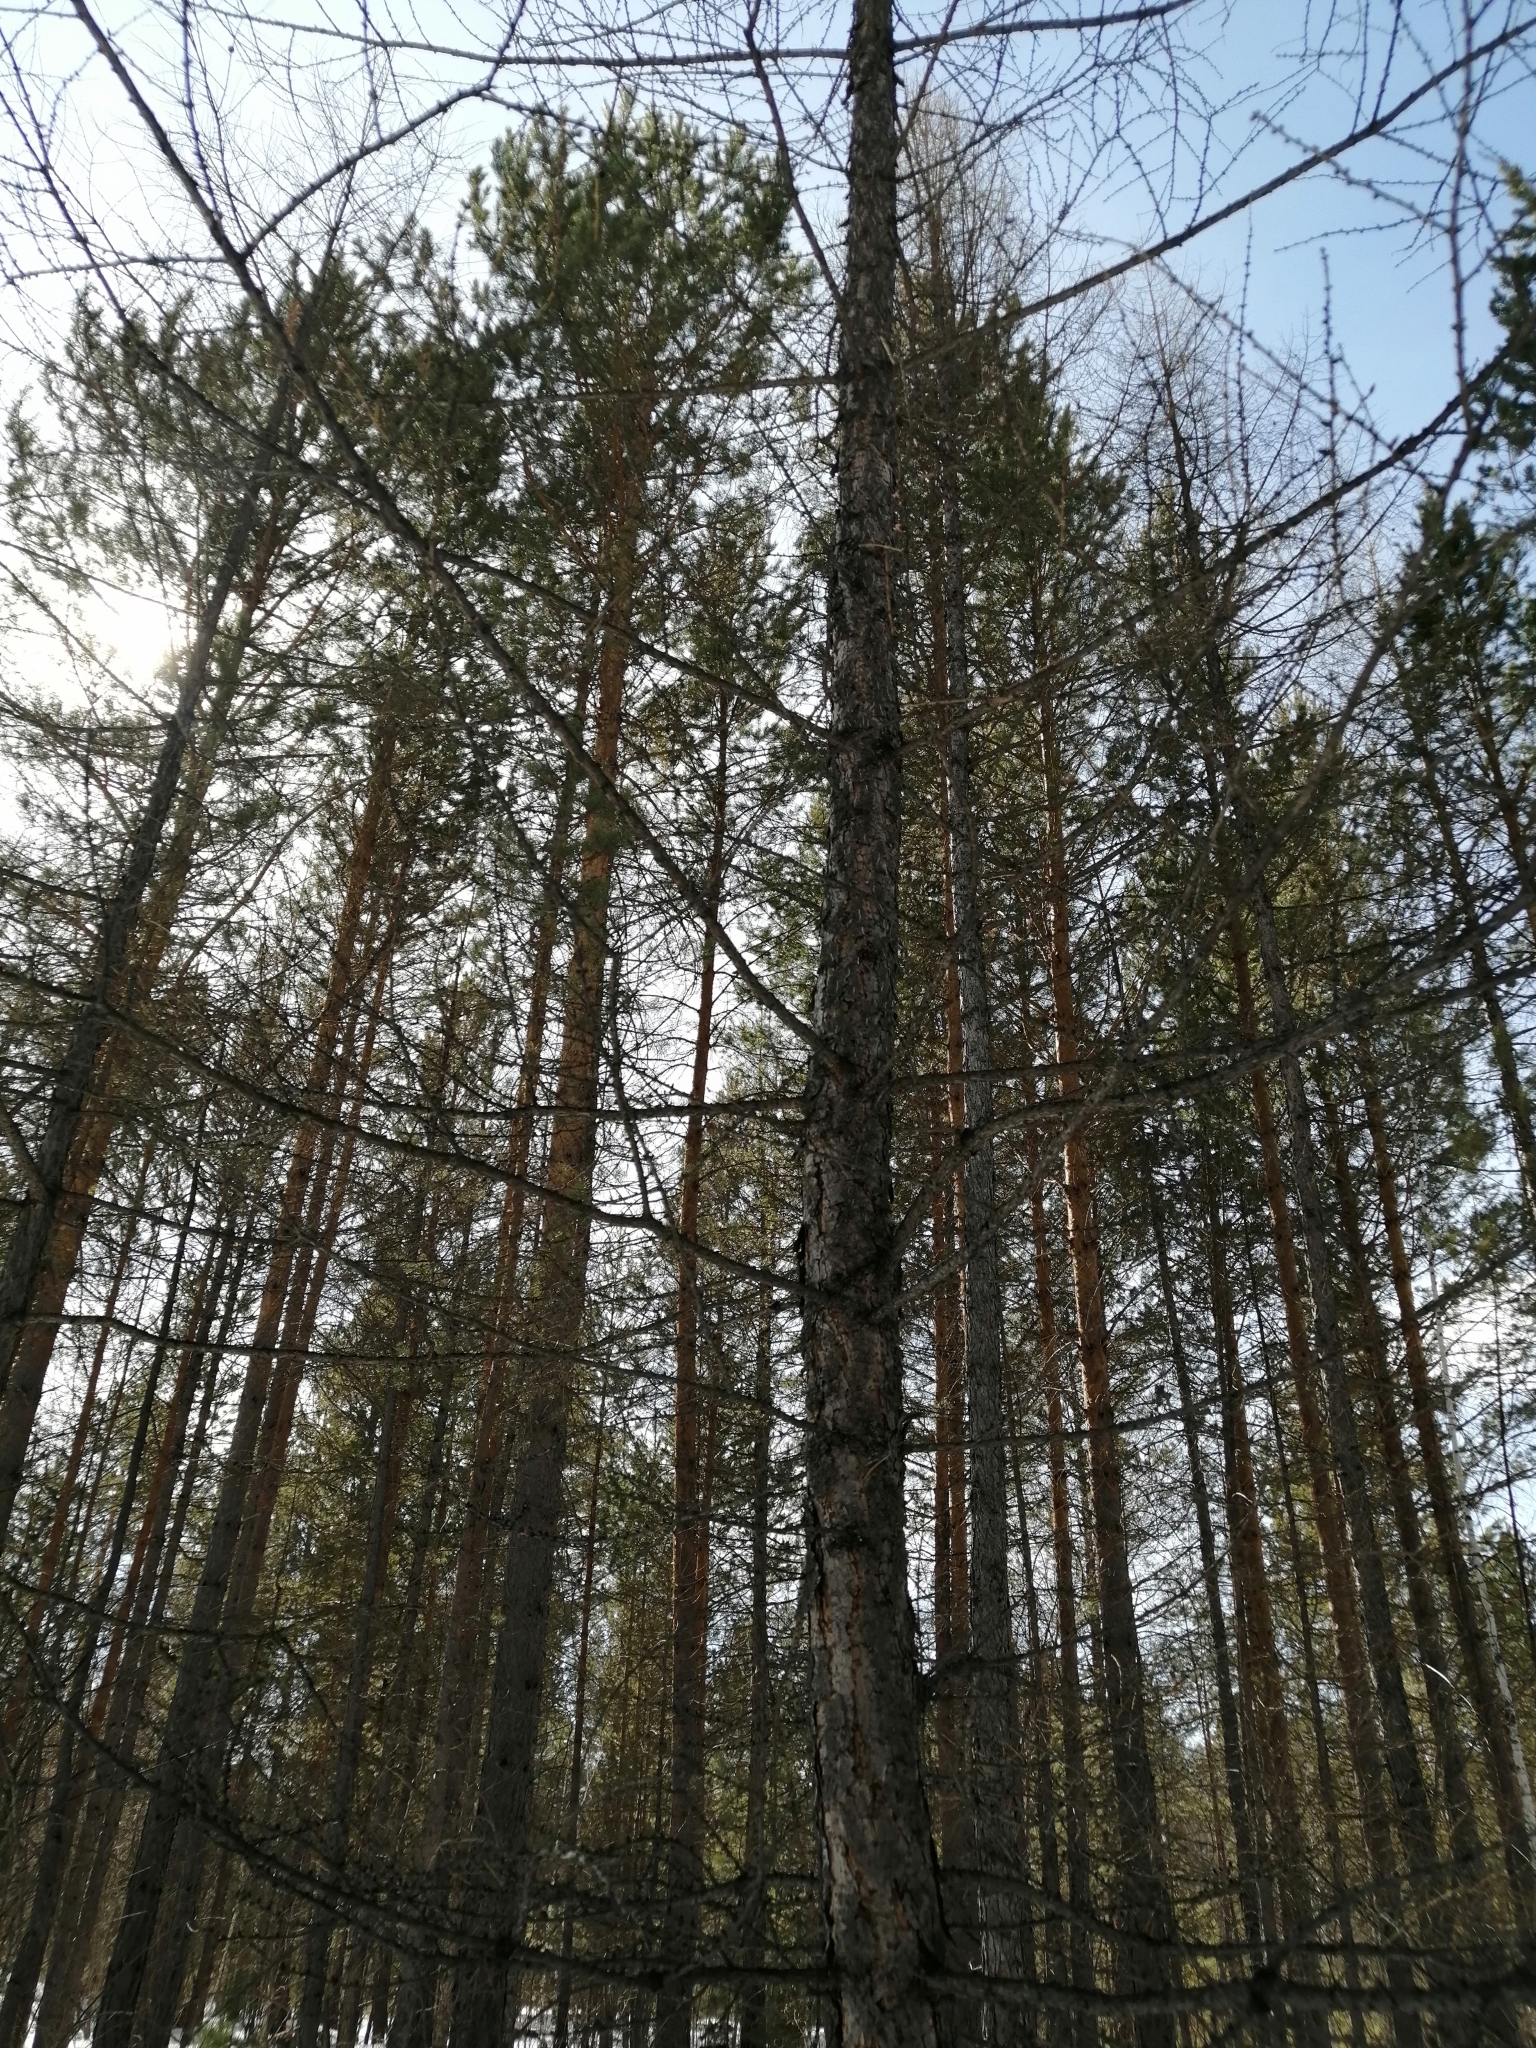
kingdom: Plantae
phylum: Tracheophyta
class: Pinopsida
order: Pinales
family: Pinaceae
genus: Larix
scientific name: Larix sibirica
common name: Siberian larch
